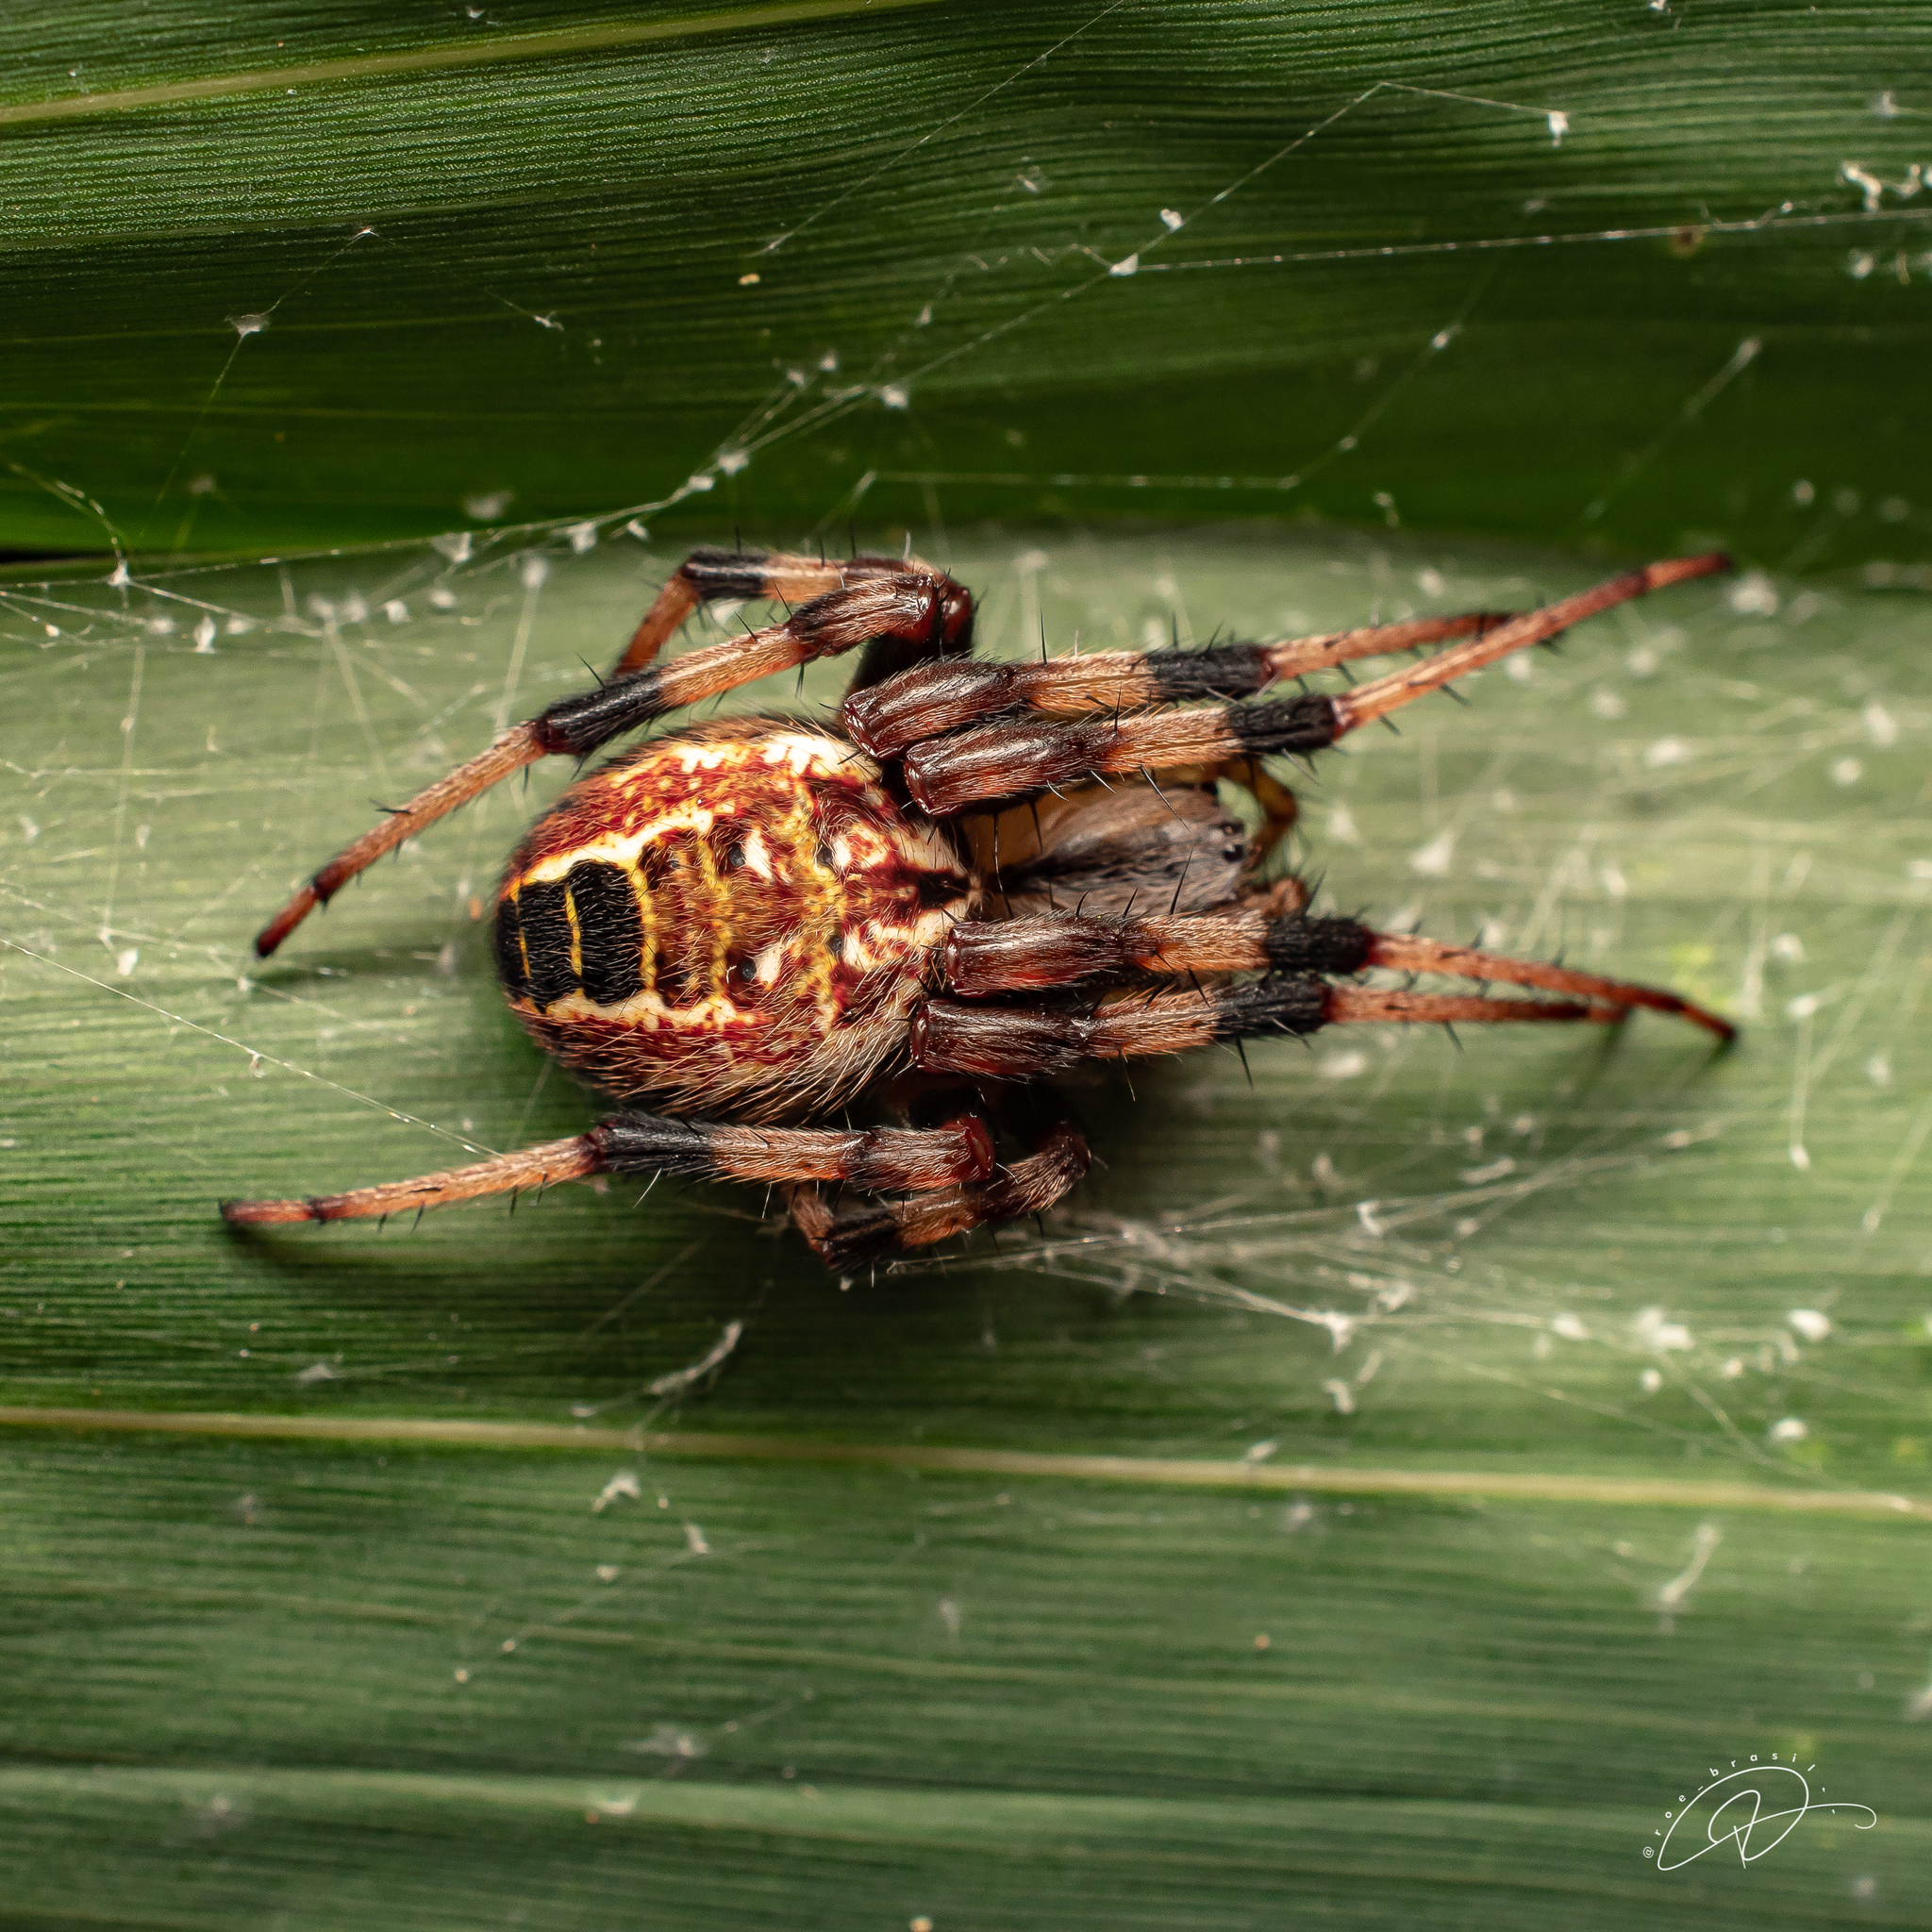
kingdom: Animalia
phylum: Arthropoda
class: Arachnida
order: Araneae
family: Araneidae
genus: Araneus
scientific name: Araneus venatrix
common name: Orb weavers
